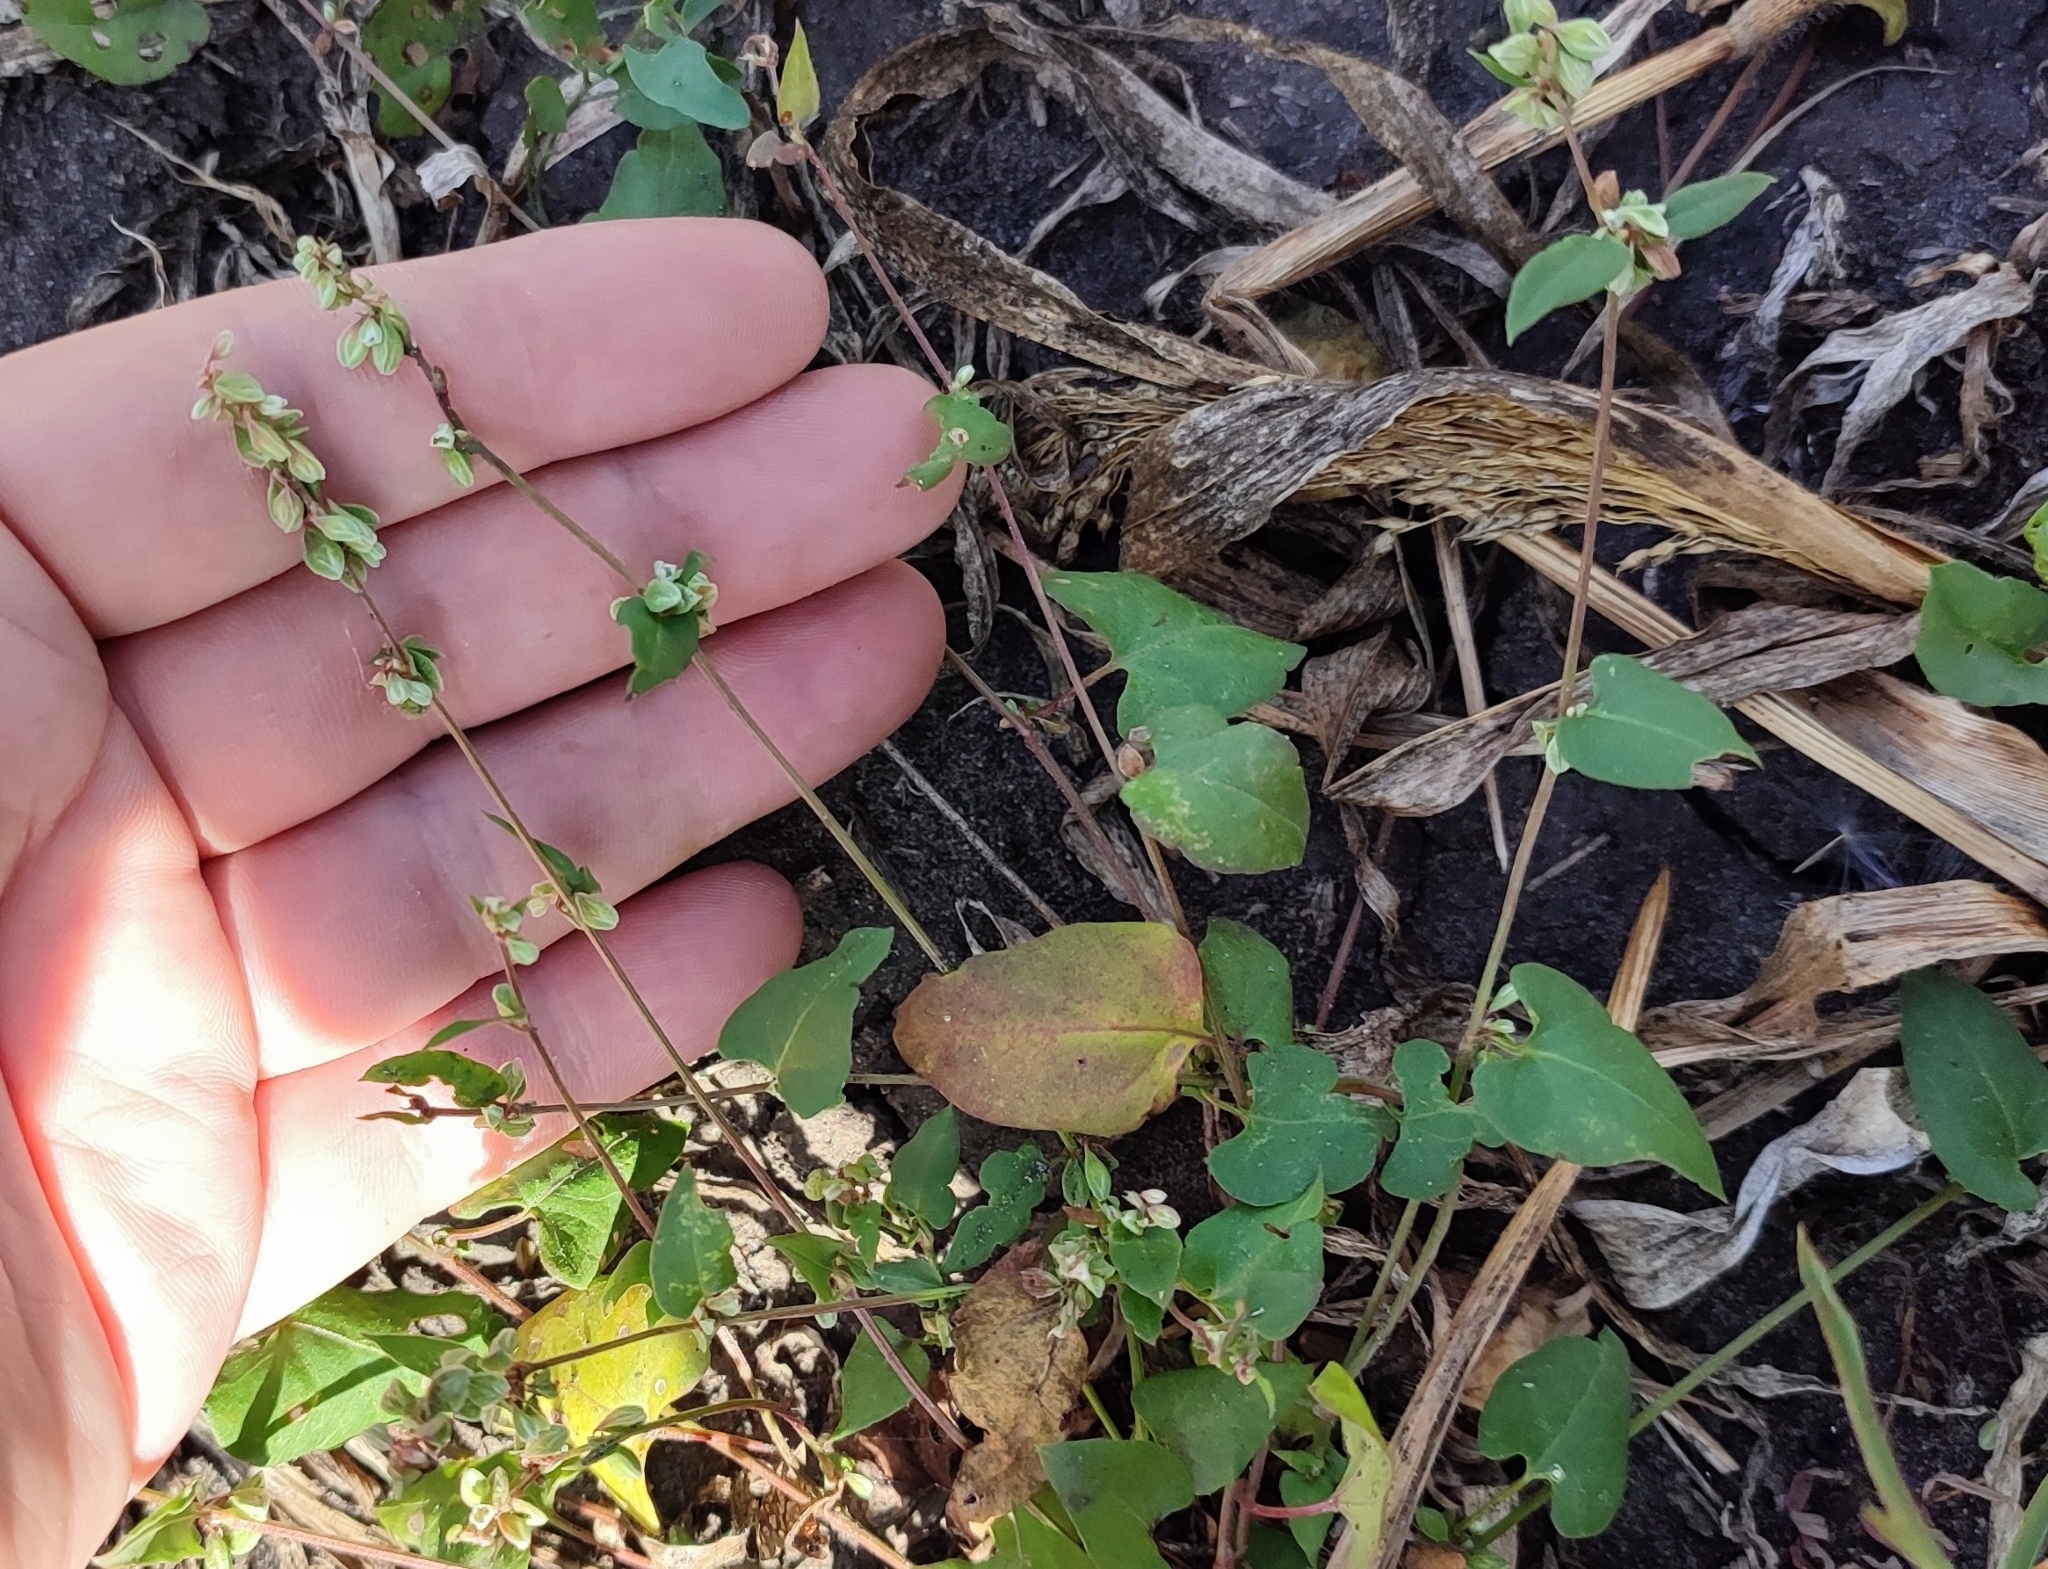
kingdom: Plantae
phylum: Tracheophyta
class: Magnoliopsida
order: Caryophyllales
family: Polygonaceae
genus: Fallopia
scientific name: Fallopia convolvulus
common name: Black bindweed
